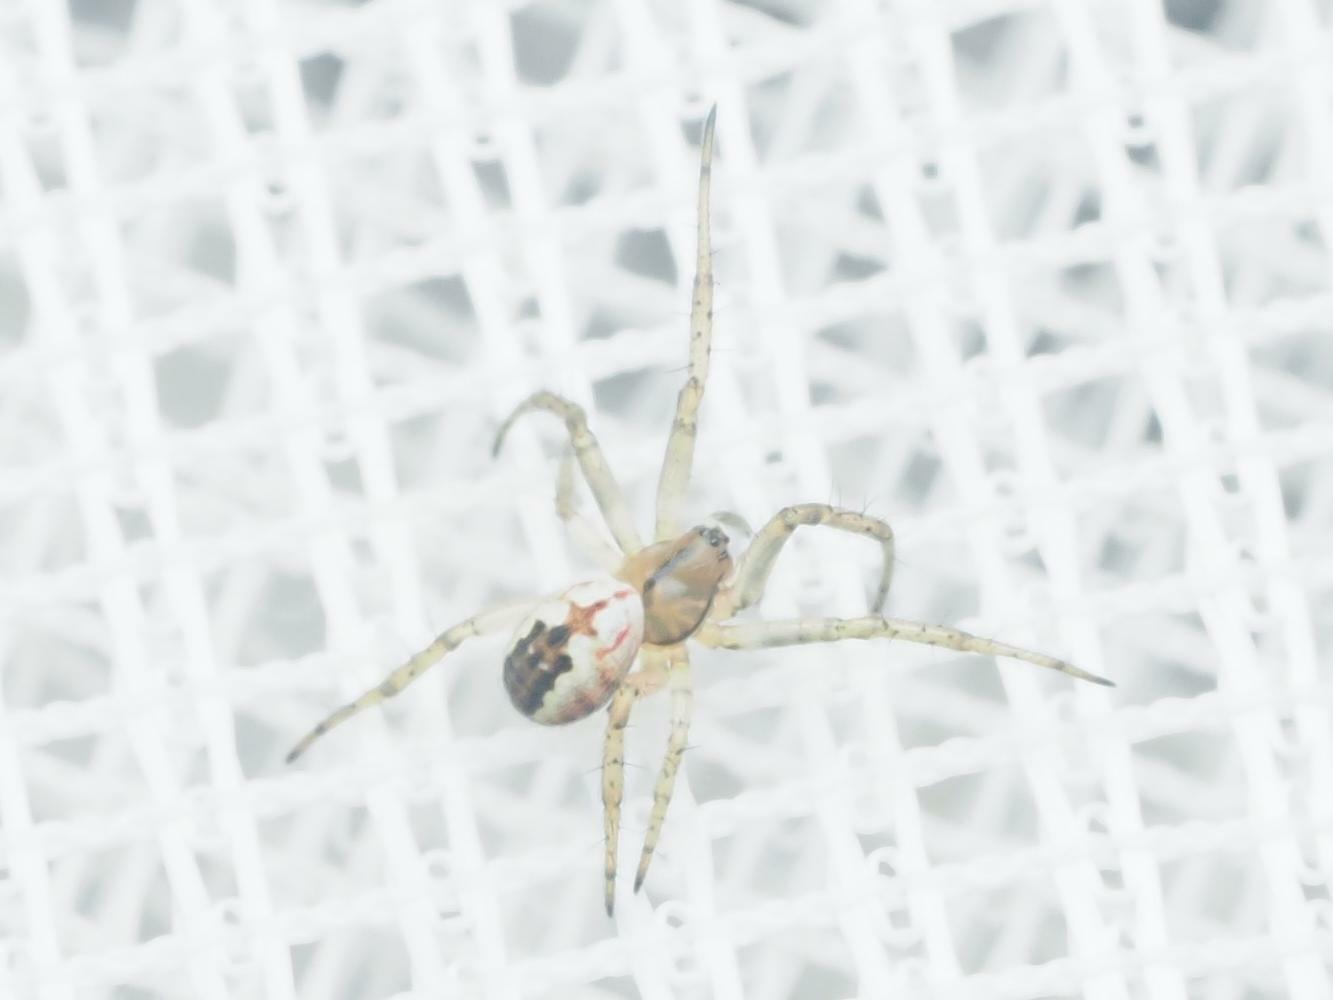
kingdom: Animalia
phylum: Arthropoda
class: Arachnida
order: Araneae
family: Araneidae
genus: Mangora
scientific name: Mangora acalypha
